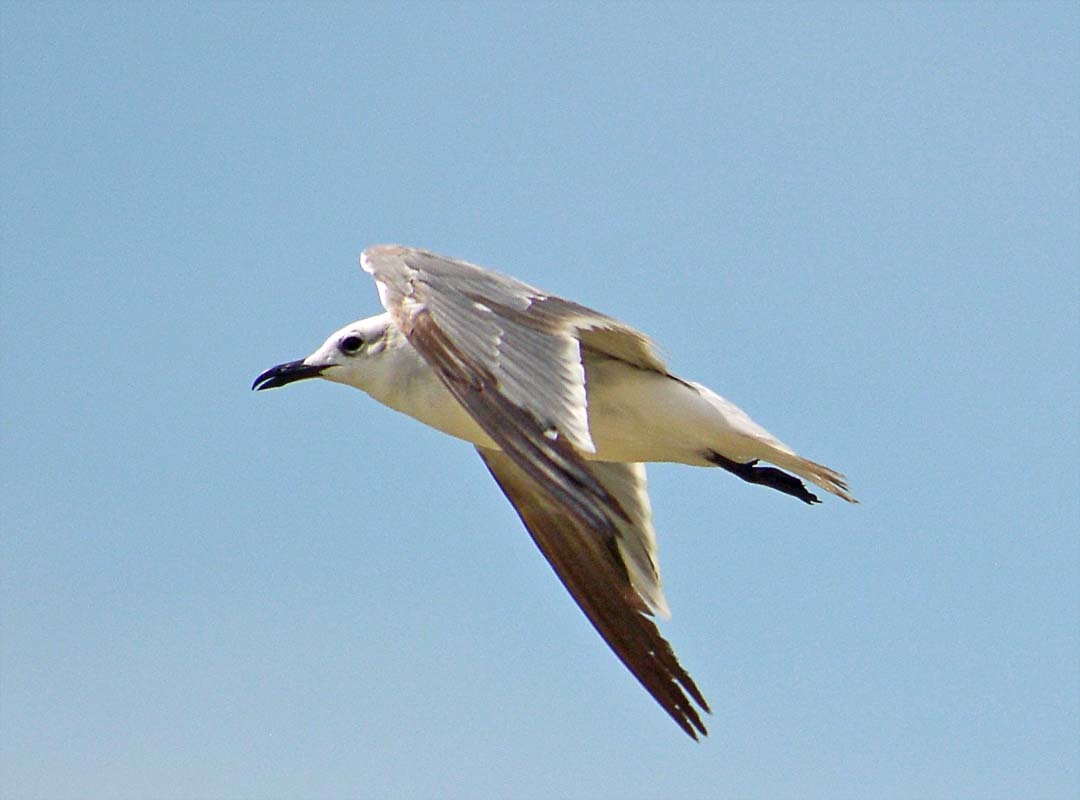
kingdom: Animalia
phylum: Chordata
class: Aves
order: Charadriiformes
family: Laridae
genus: Leucophaeus
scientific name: Leucophaeus atricilla
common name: Laughing gull
